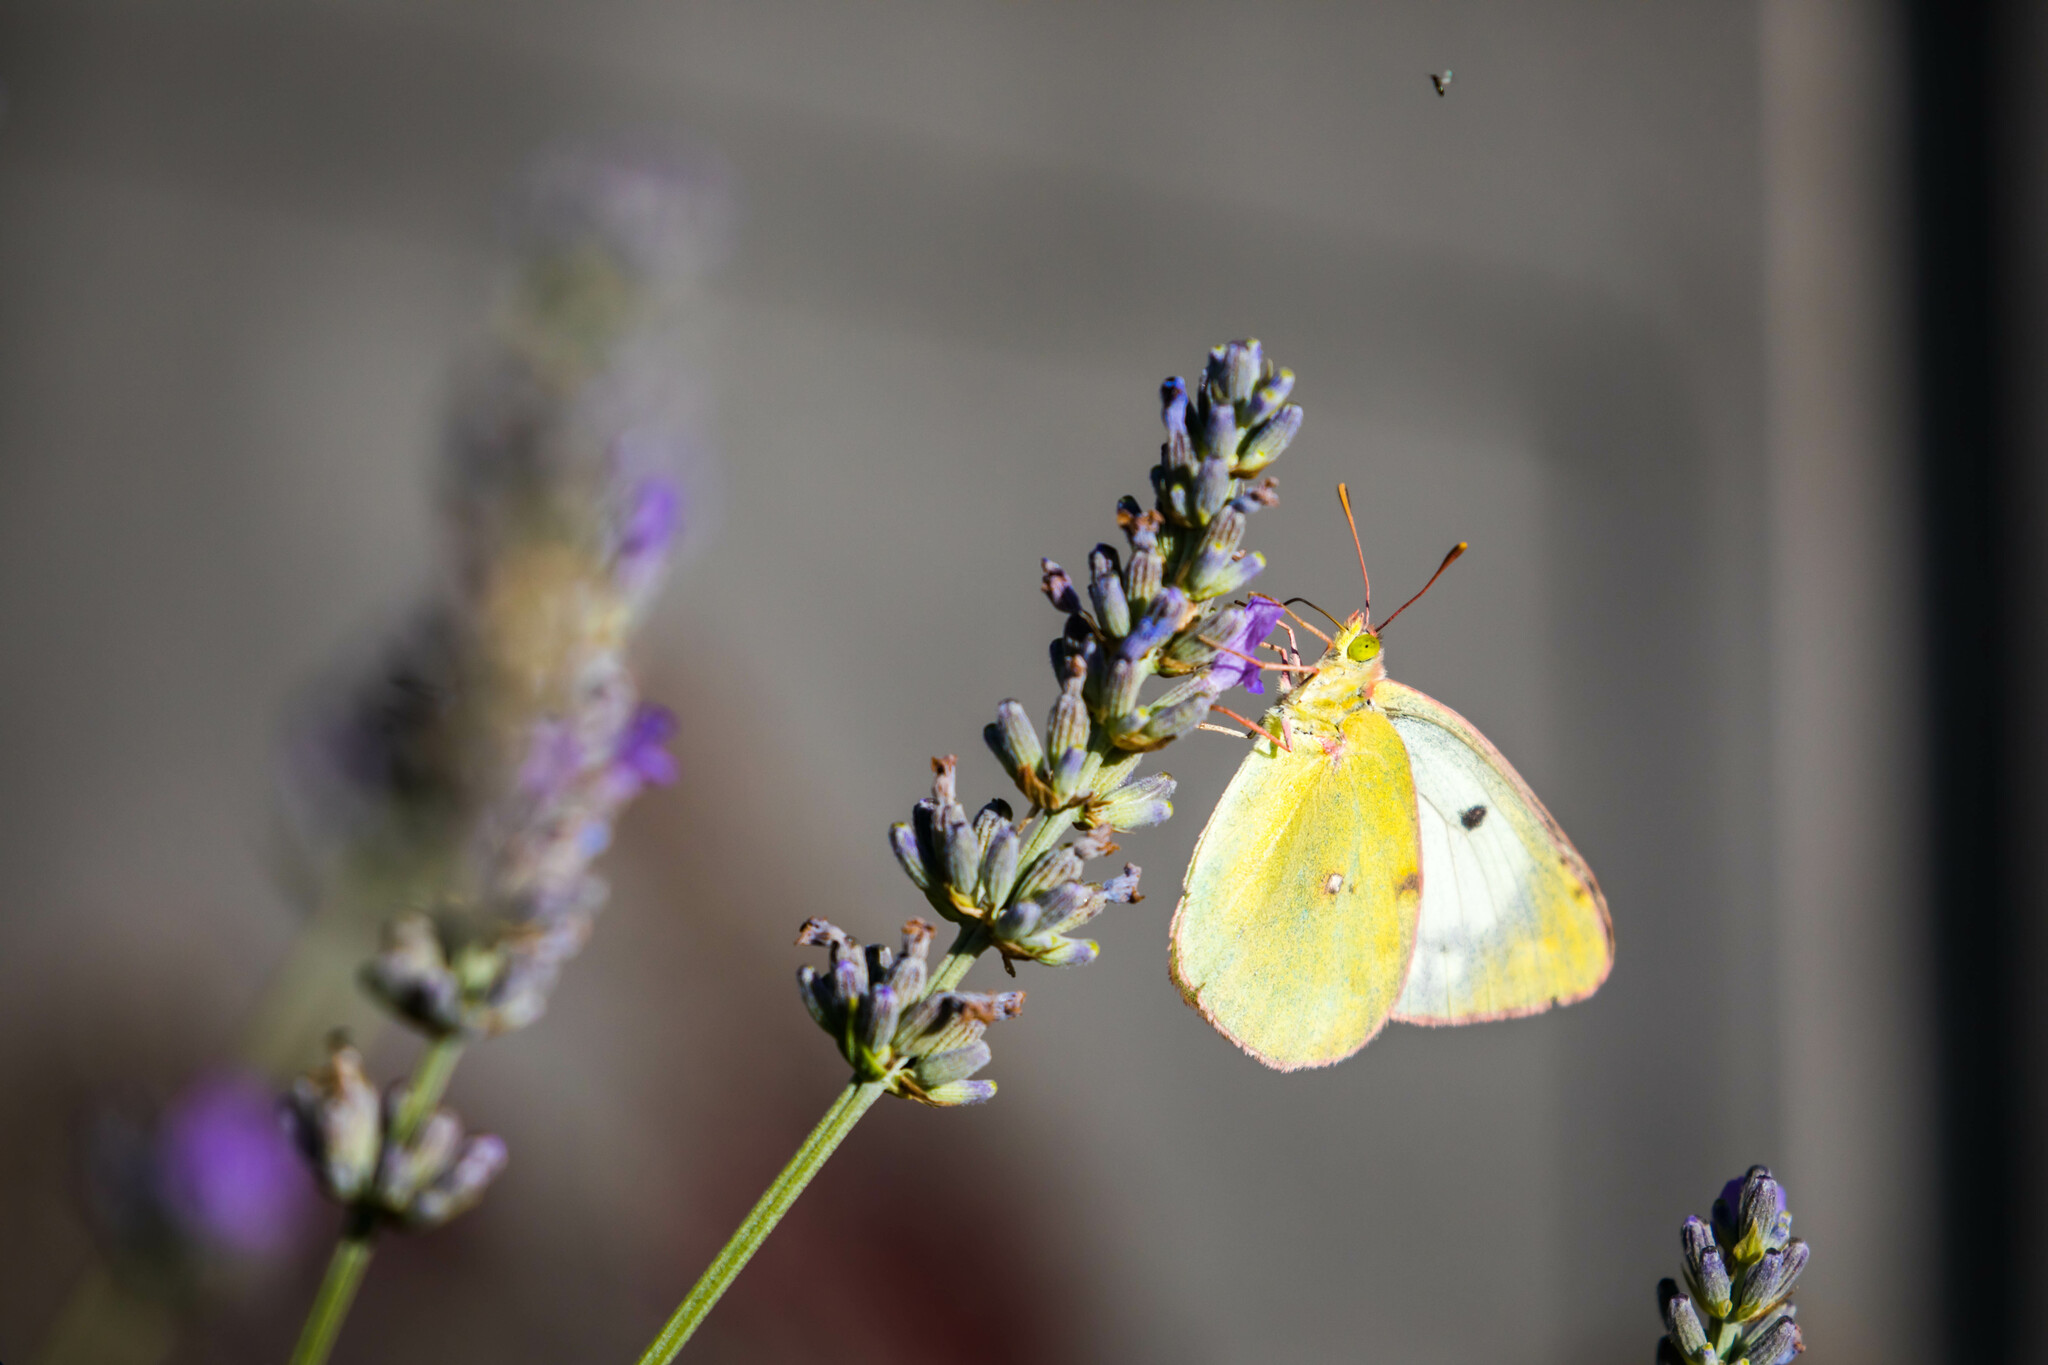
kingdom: Animalia
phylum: Arthropoda
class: Insecta
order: Lepidoptera
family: Pieridae
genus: Colias
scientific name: Colias alfacariensis
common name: Berger's clouded yellow
